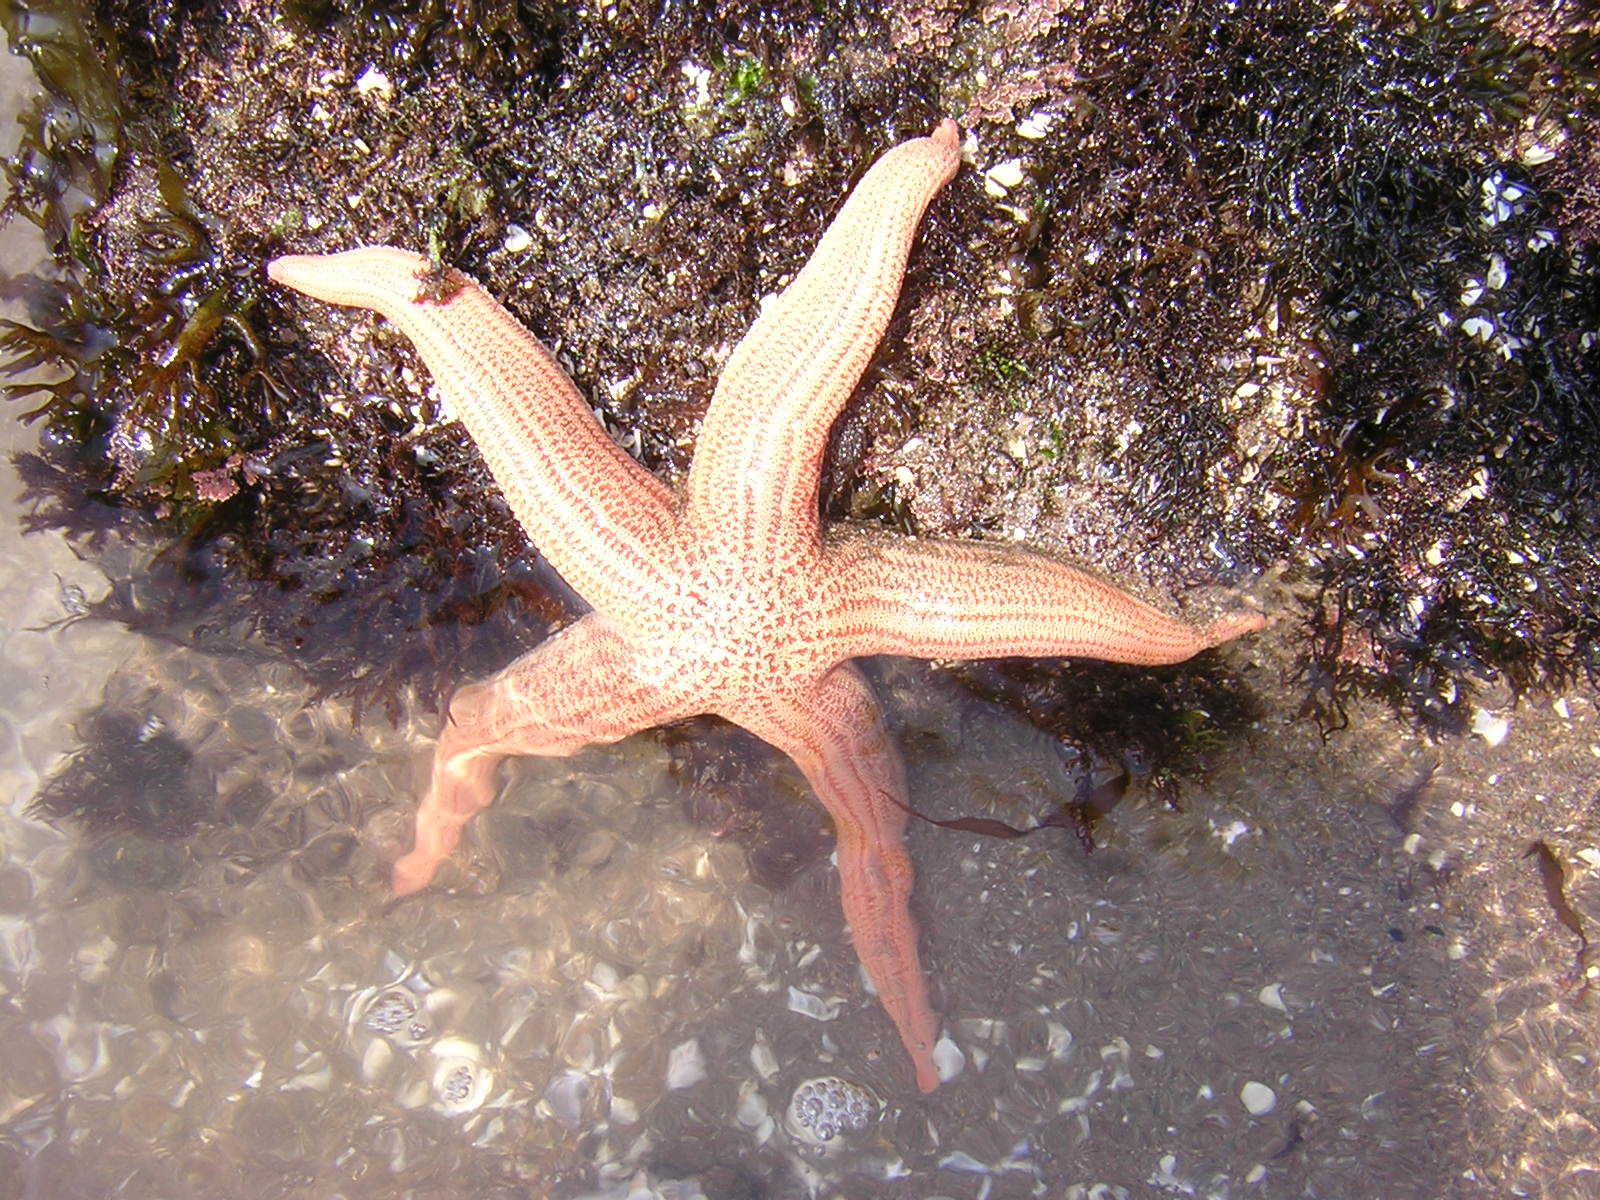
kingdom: Animalia
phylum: Echinodermata
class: Asteroidea
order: Forcipulatida
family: Stichasteridae
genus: Stichaster
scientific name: Stichaster striatus
